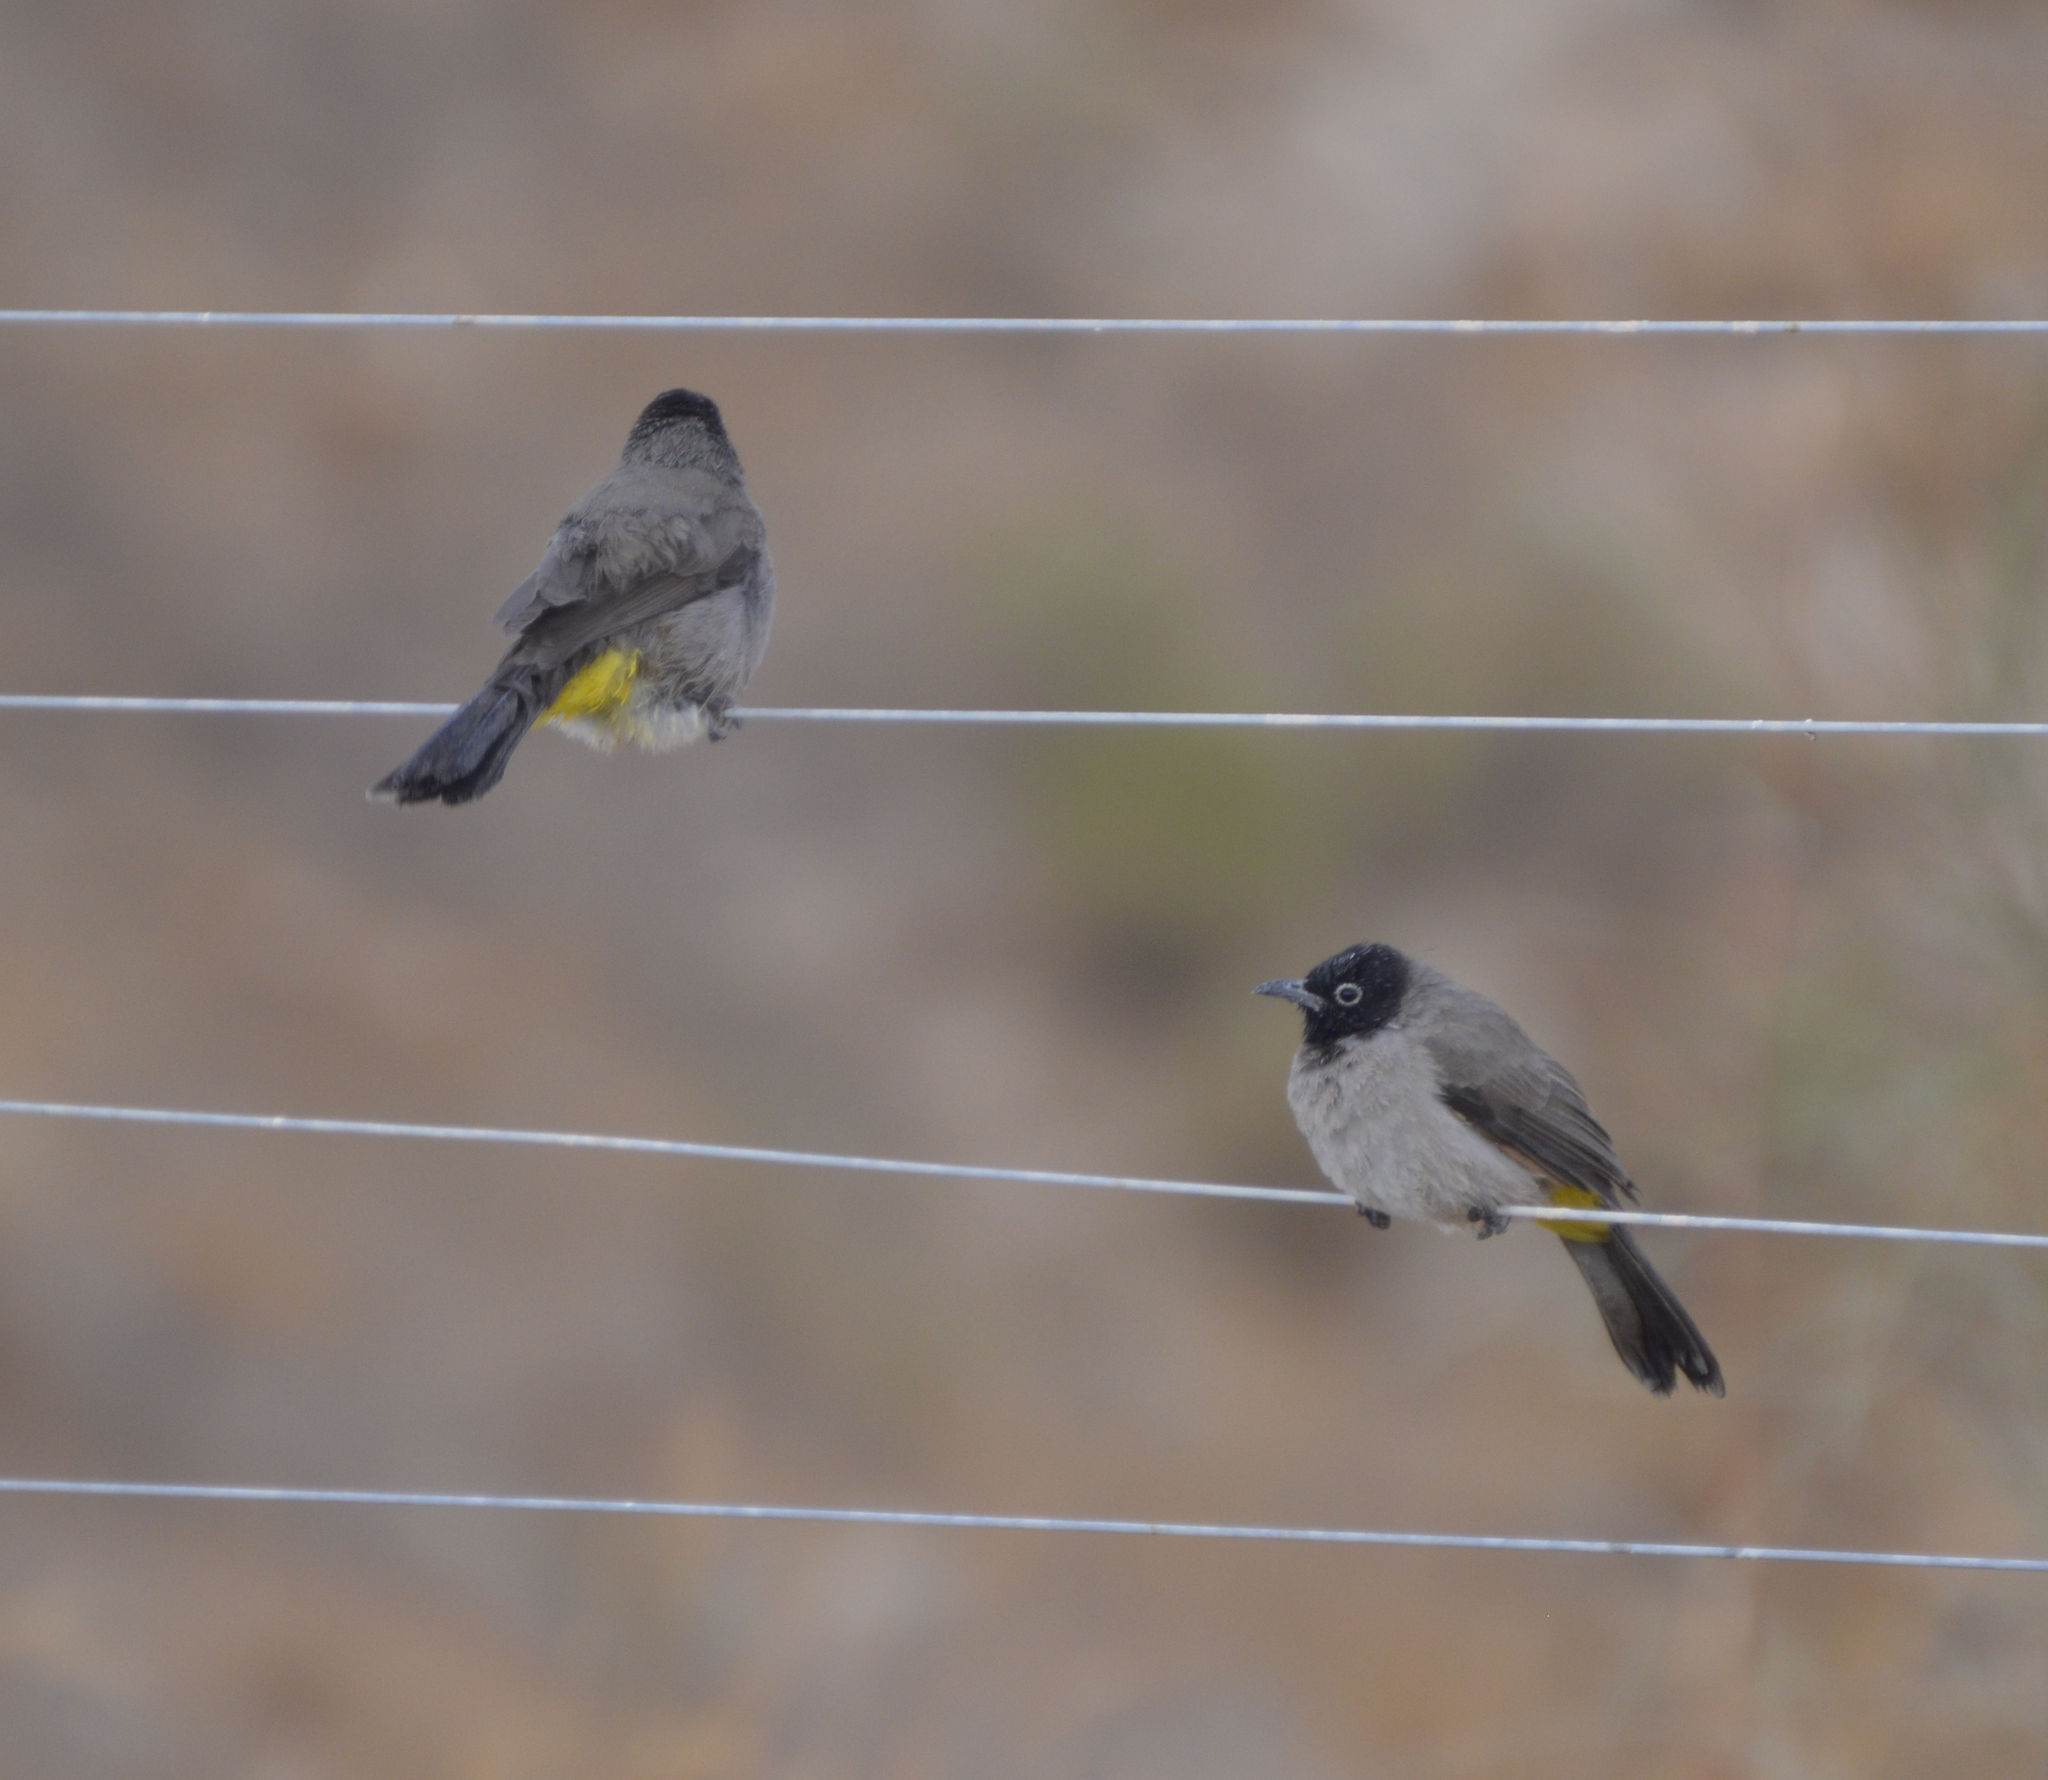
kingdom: Animalia
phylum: Chordata
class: Aves
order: Passeriformes
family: Pycnonotidae
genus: Pycnonotus
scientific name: Pycnonotus xanthopygos
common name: White-spectacled bulbul
